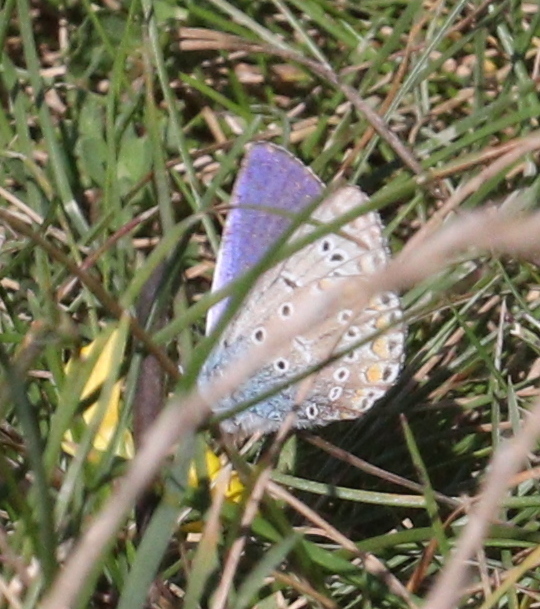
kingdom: Animalia
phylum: Arthropoda
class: Insecta
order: Lepidoptera
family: Lycaenidae
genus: Polyommatus
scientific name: Polyommatus icarus
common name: Common blue
